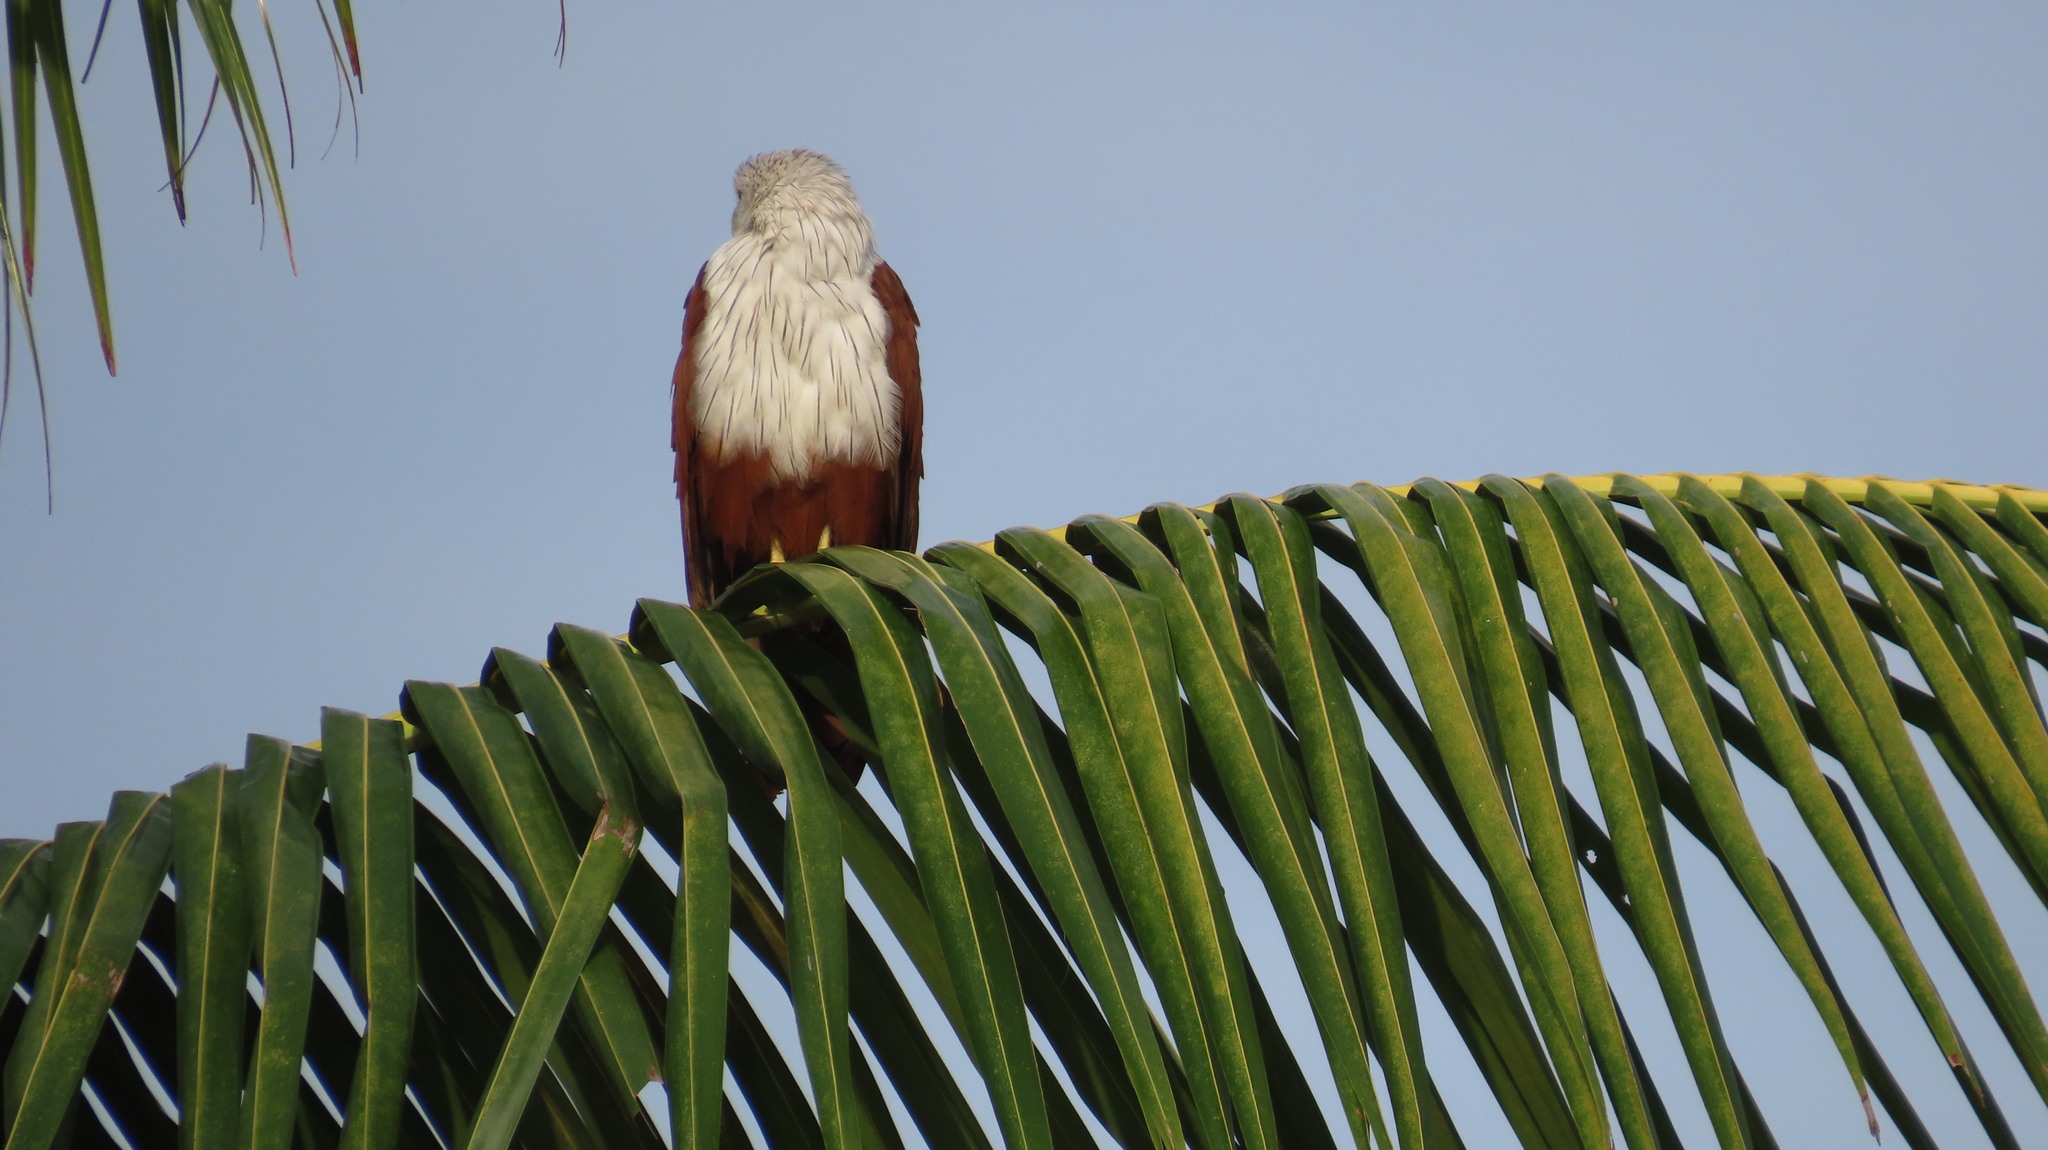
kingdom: Animalia
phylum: Chordata
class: Aves
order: Accipitriformes
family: Accipitridae
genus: Haliastur
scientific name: Haliastur indus
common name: Brahminy kite
